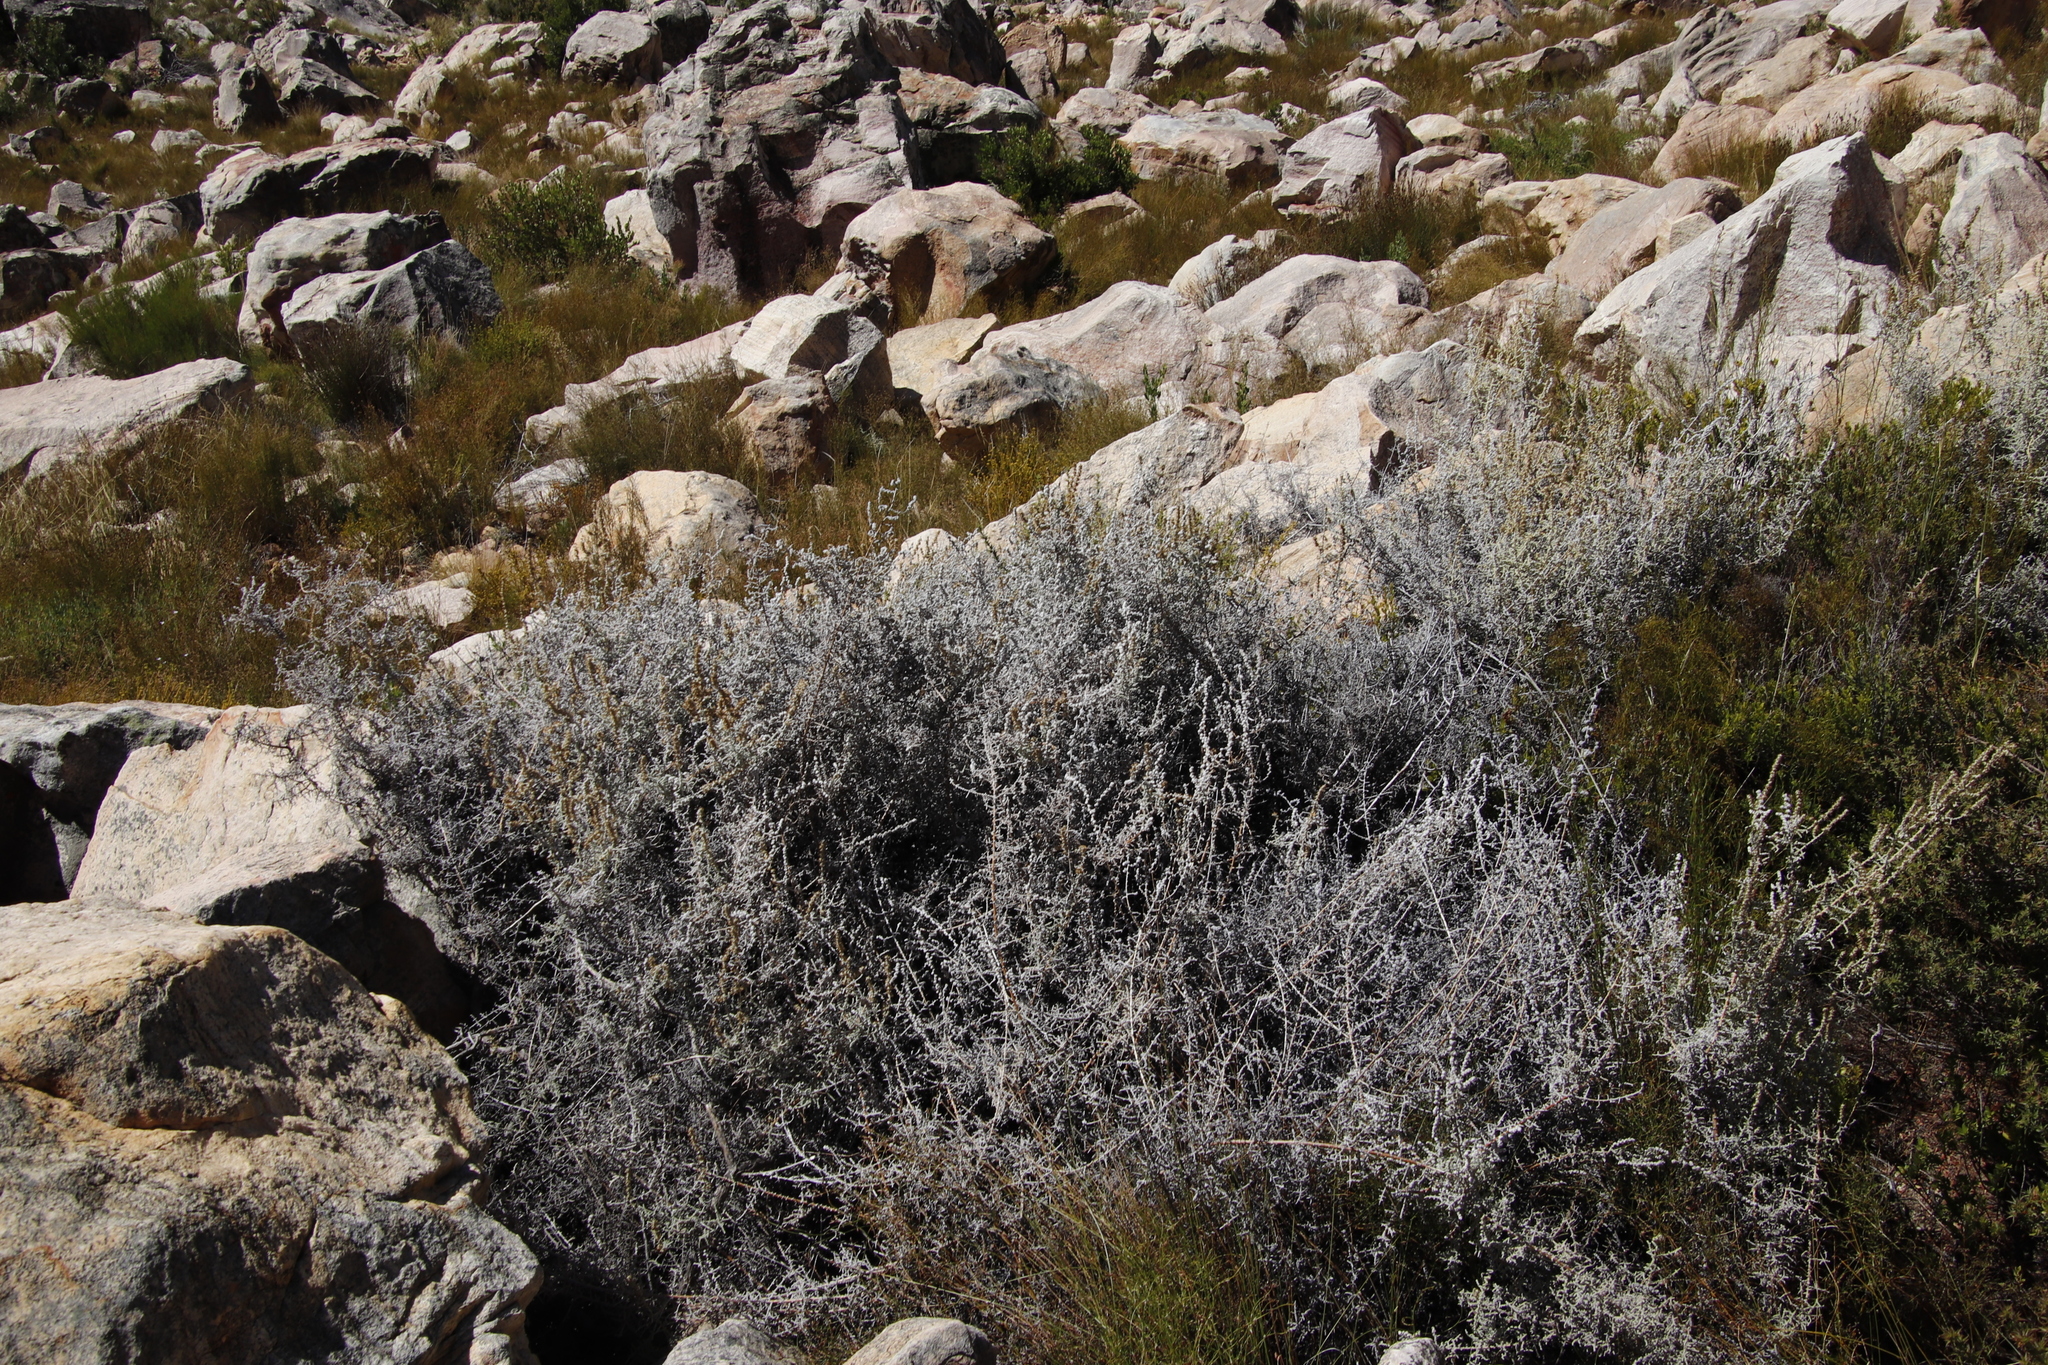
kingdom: Plantae
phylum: Tracheophyta
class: Magnoliopsida
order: Asterales
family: Asteraceae
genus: Seriphium
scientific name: Seriphium plumosum
